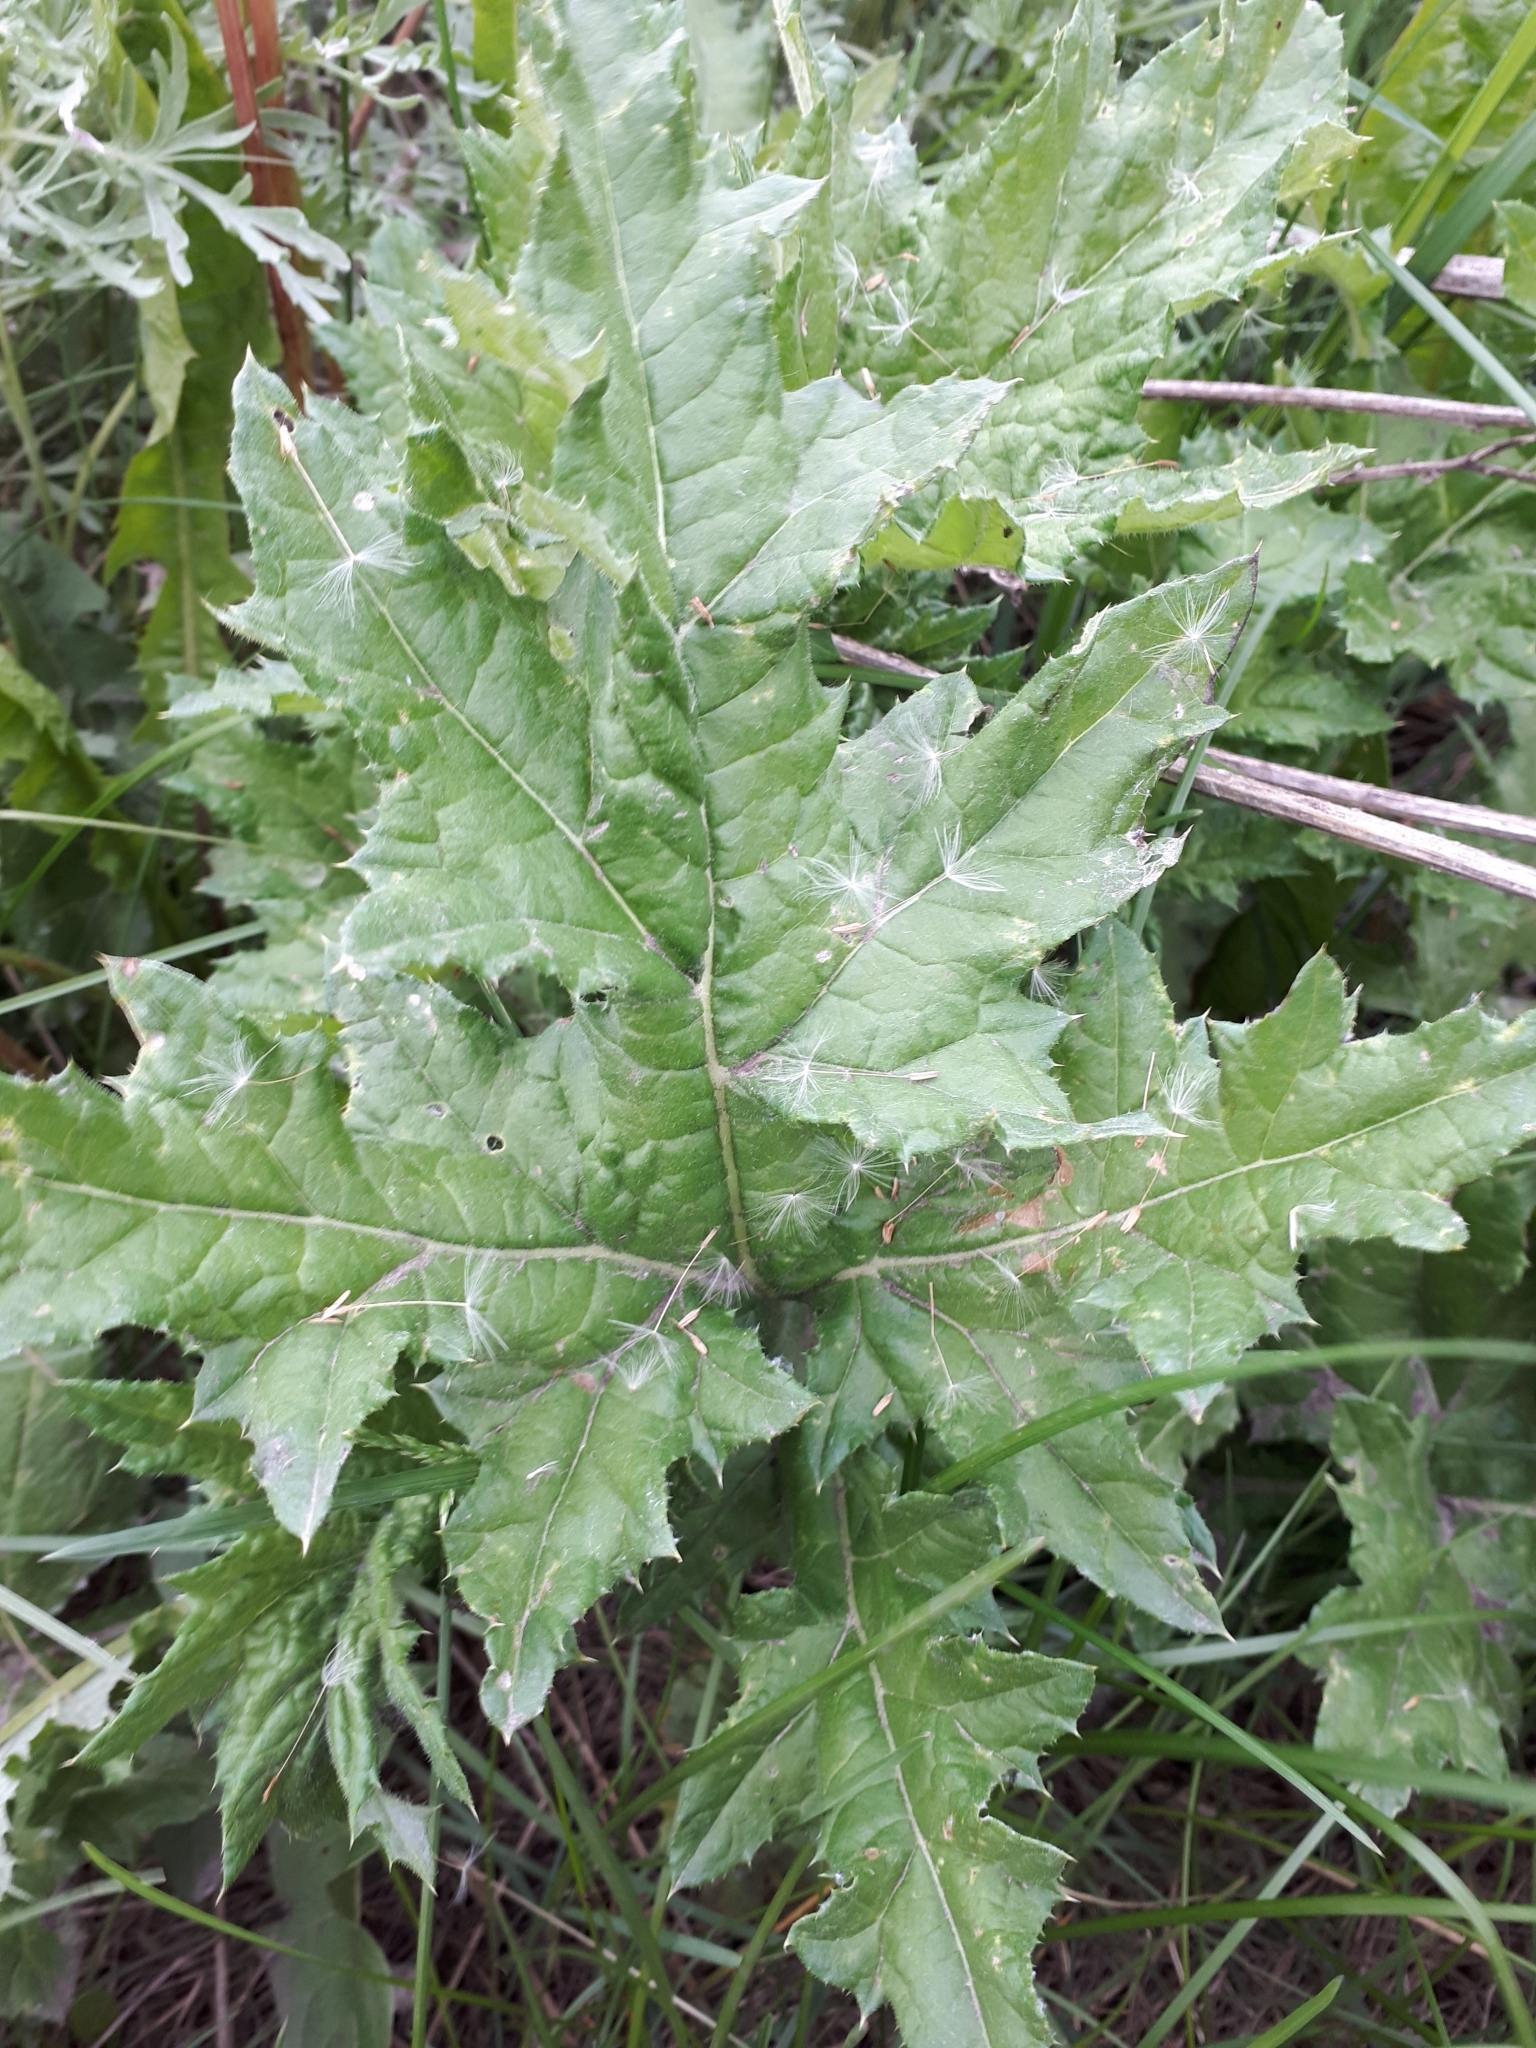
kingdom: Plantae
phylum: Tracheophyta
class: Magnoliopsida
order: Asterales
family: Asteraceae
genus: Carduus
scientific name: Carduus crispus
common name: Welted thistle
